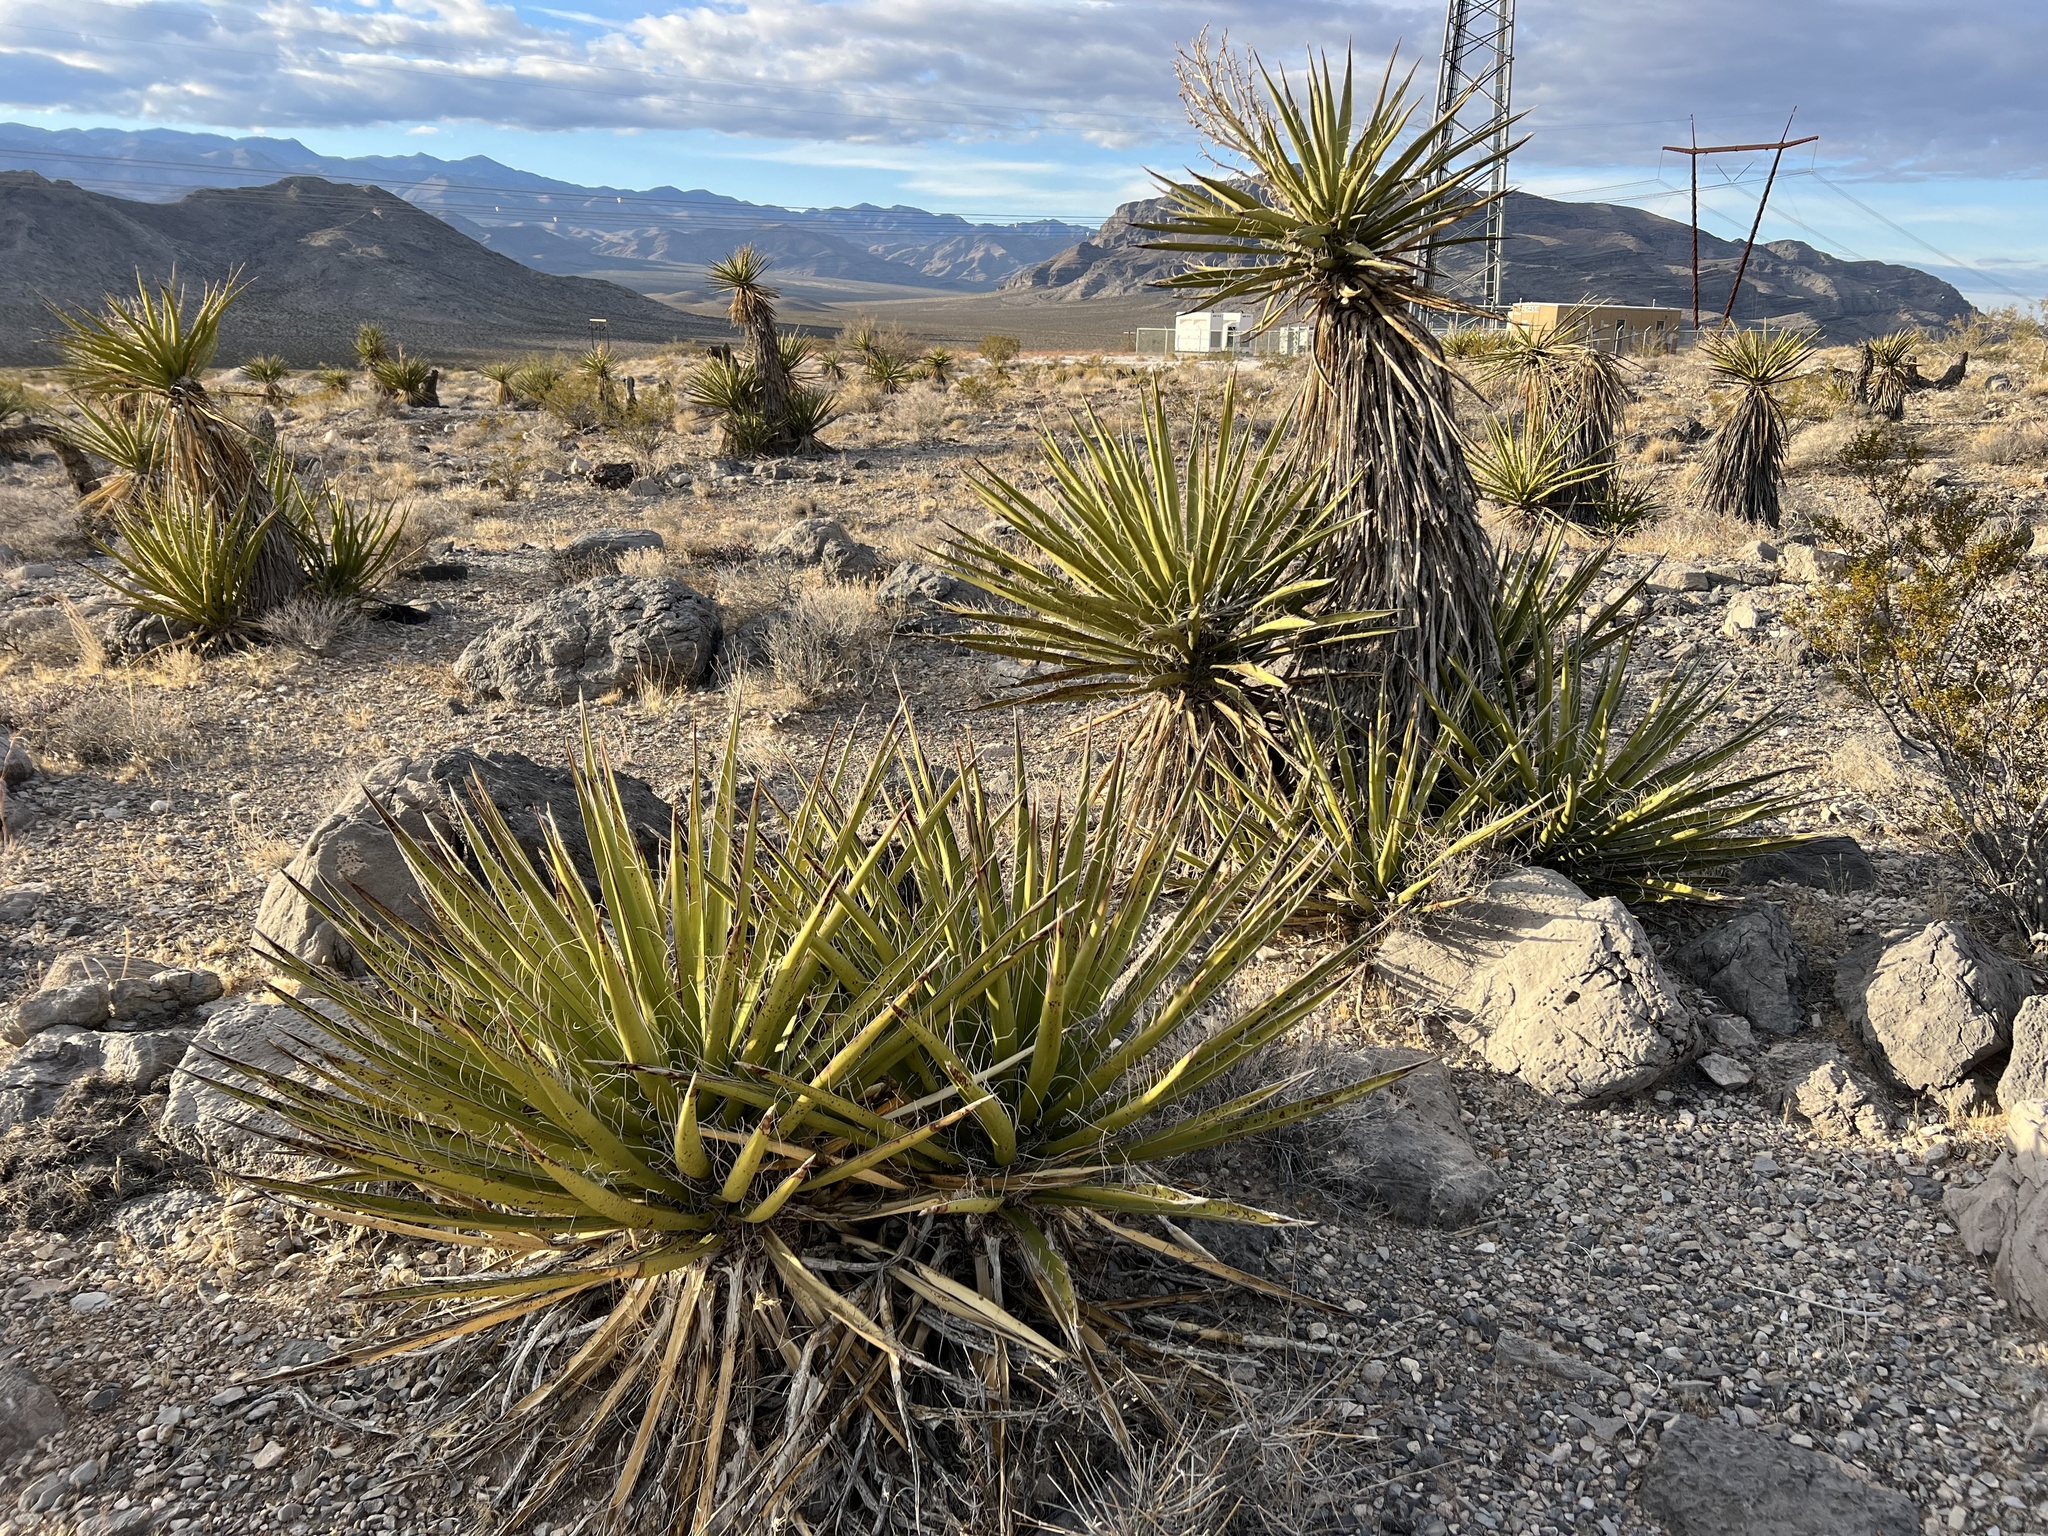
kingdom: Plantae
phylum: Tracheophyta
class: Liliopsida
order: Asparagales
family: Asparagaceae
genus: Yucca
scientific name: Yucca schidigera
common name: Mojave yucca
